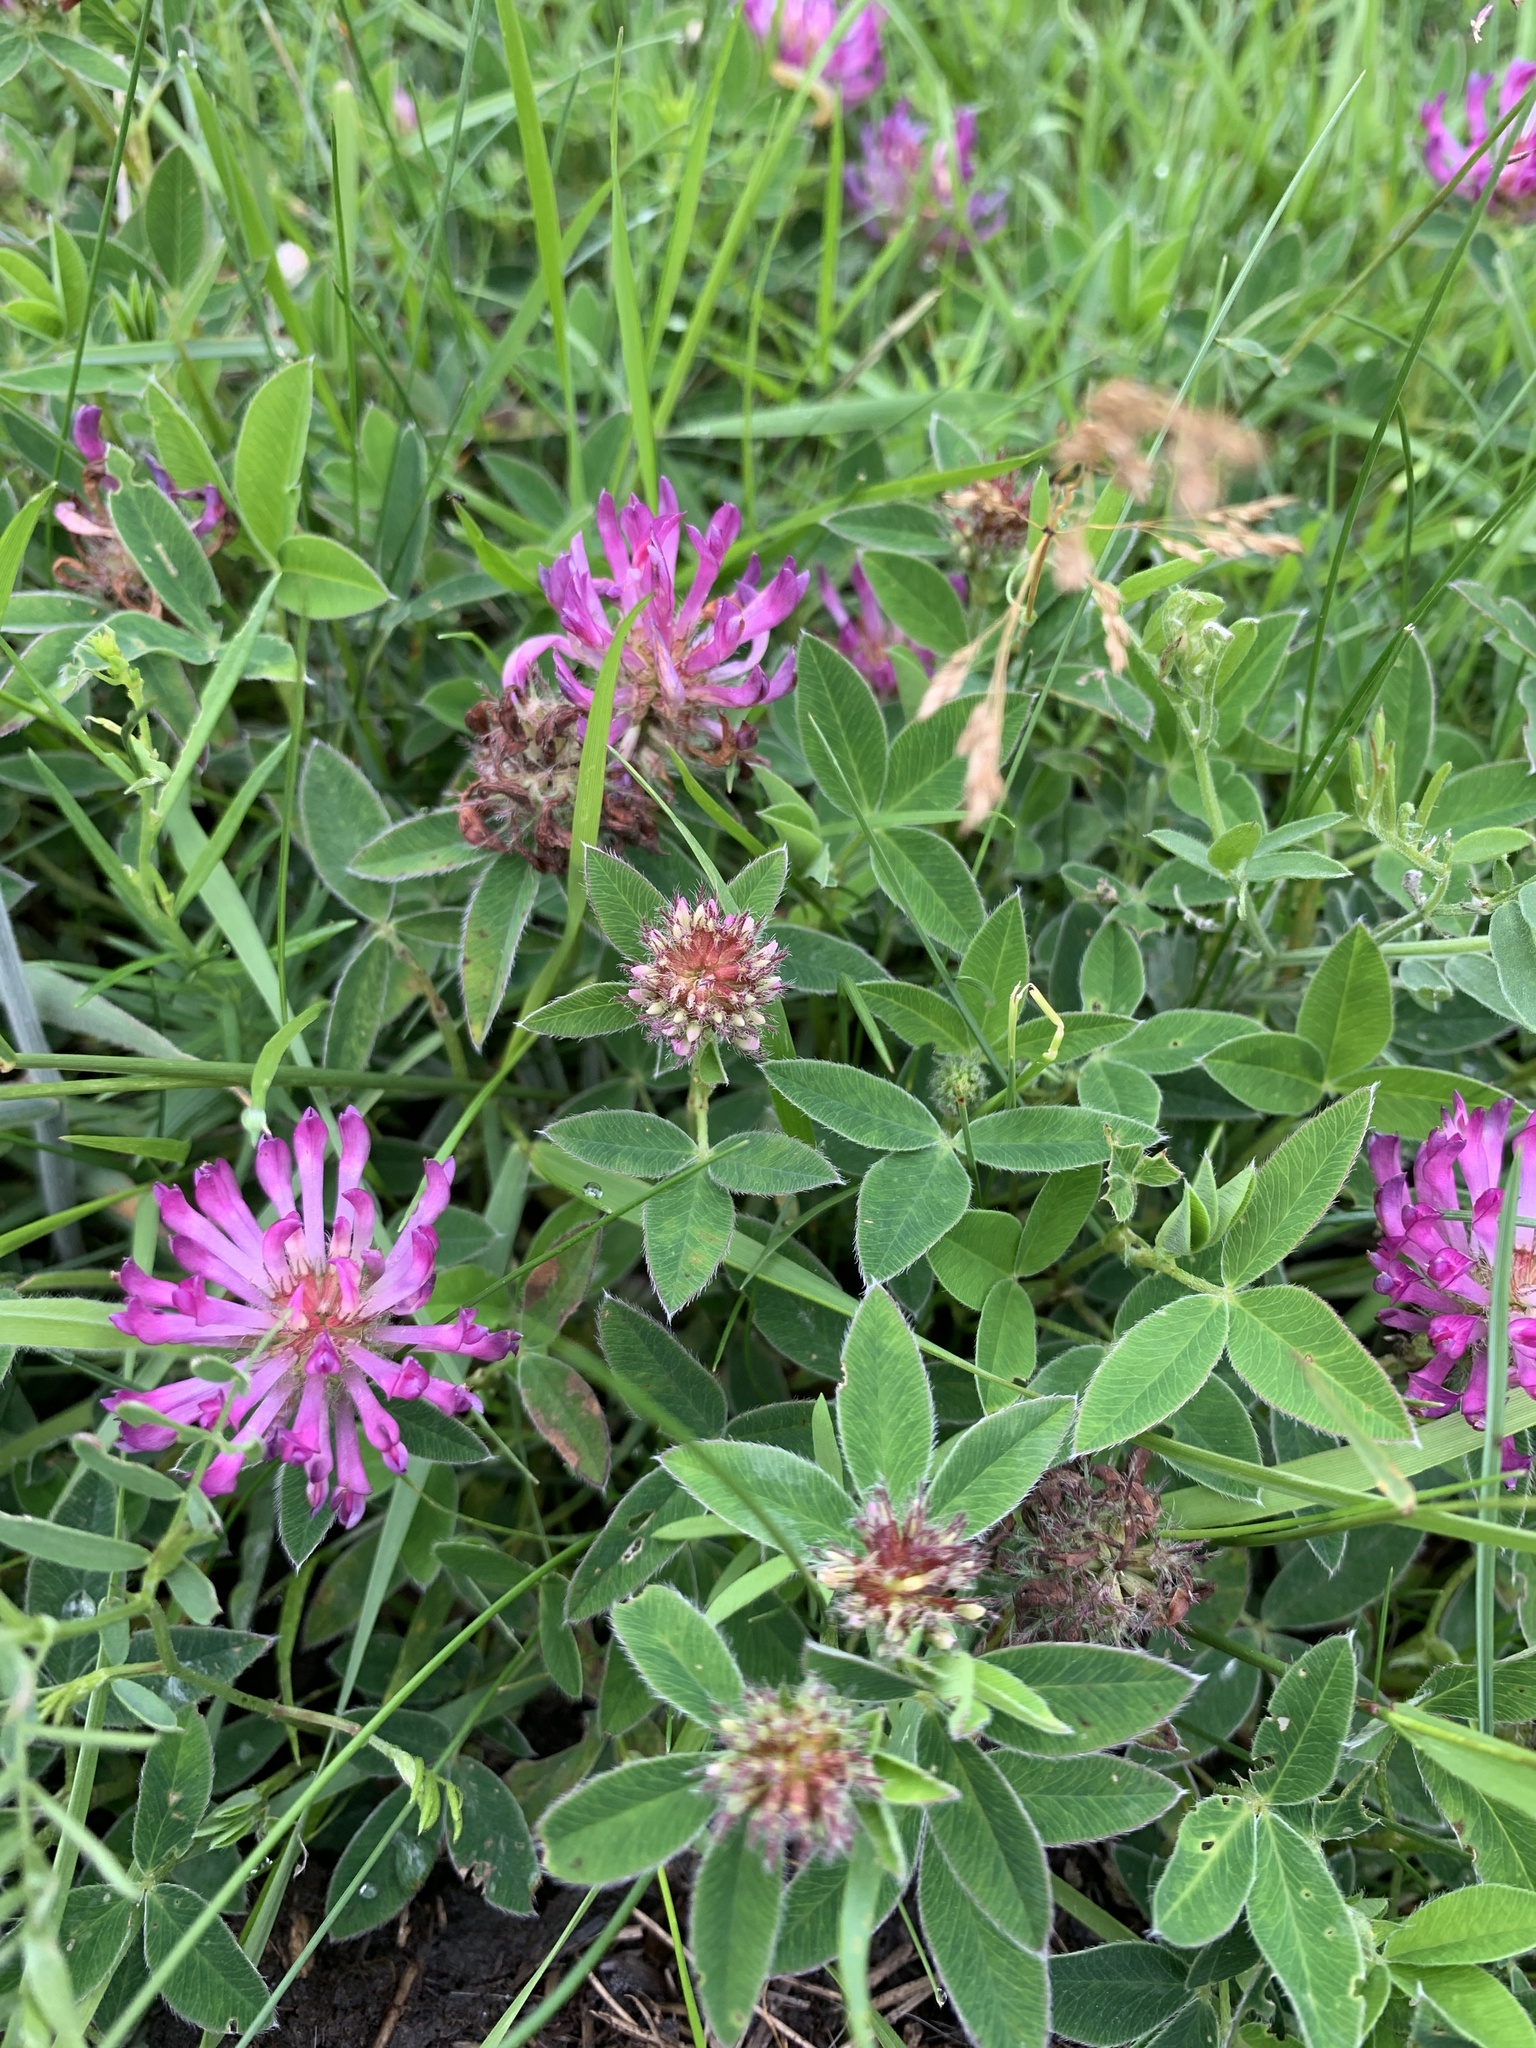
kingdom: Plantae
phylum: Tracheophyta
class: Magnoliopsida
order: Fabales
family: Fabaceae
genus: Trifolium
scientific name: Trifolium medium
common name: Zigzag clover
